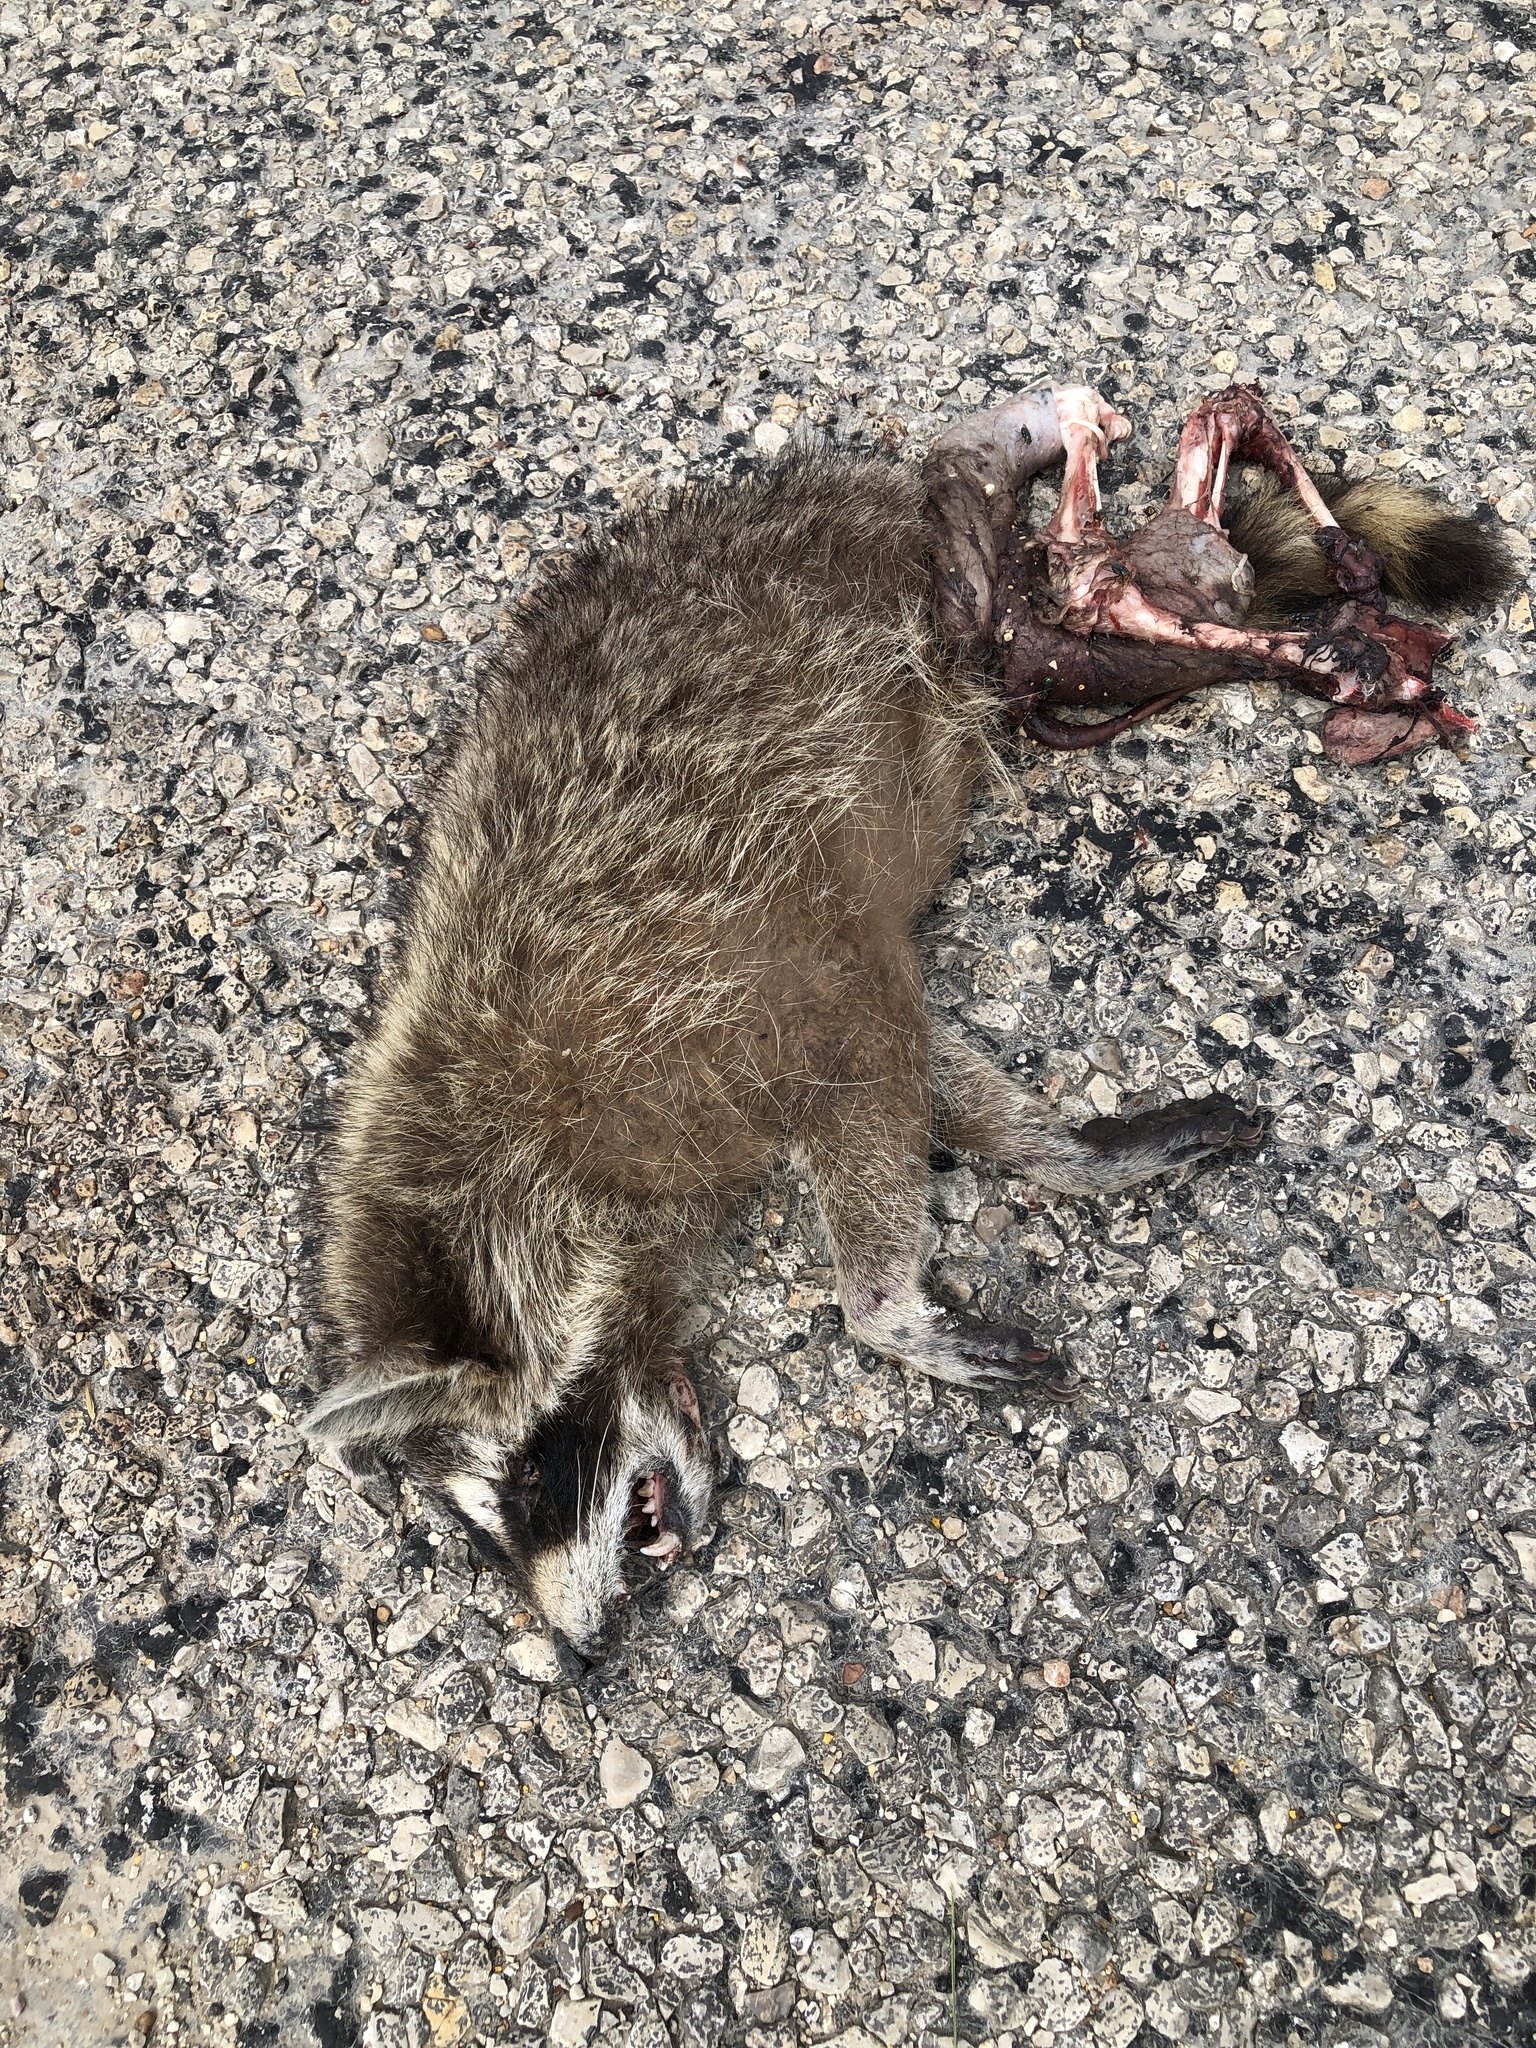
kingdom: Animalia
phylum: Chordata
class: Mammalia
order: Carnivora
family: Procyonidae
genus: Procyon
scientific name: Procyon lotor
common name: Raccoon
